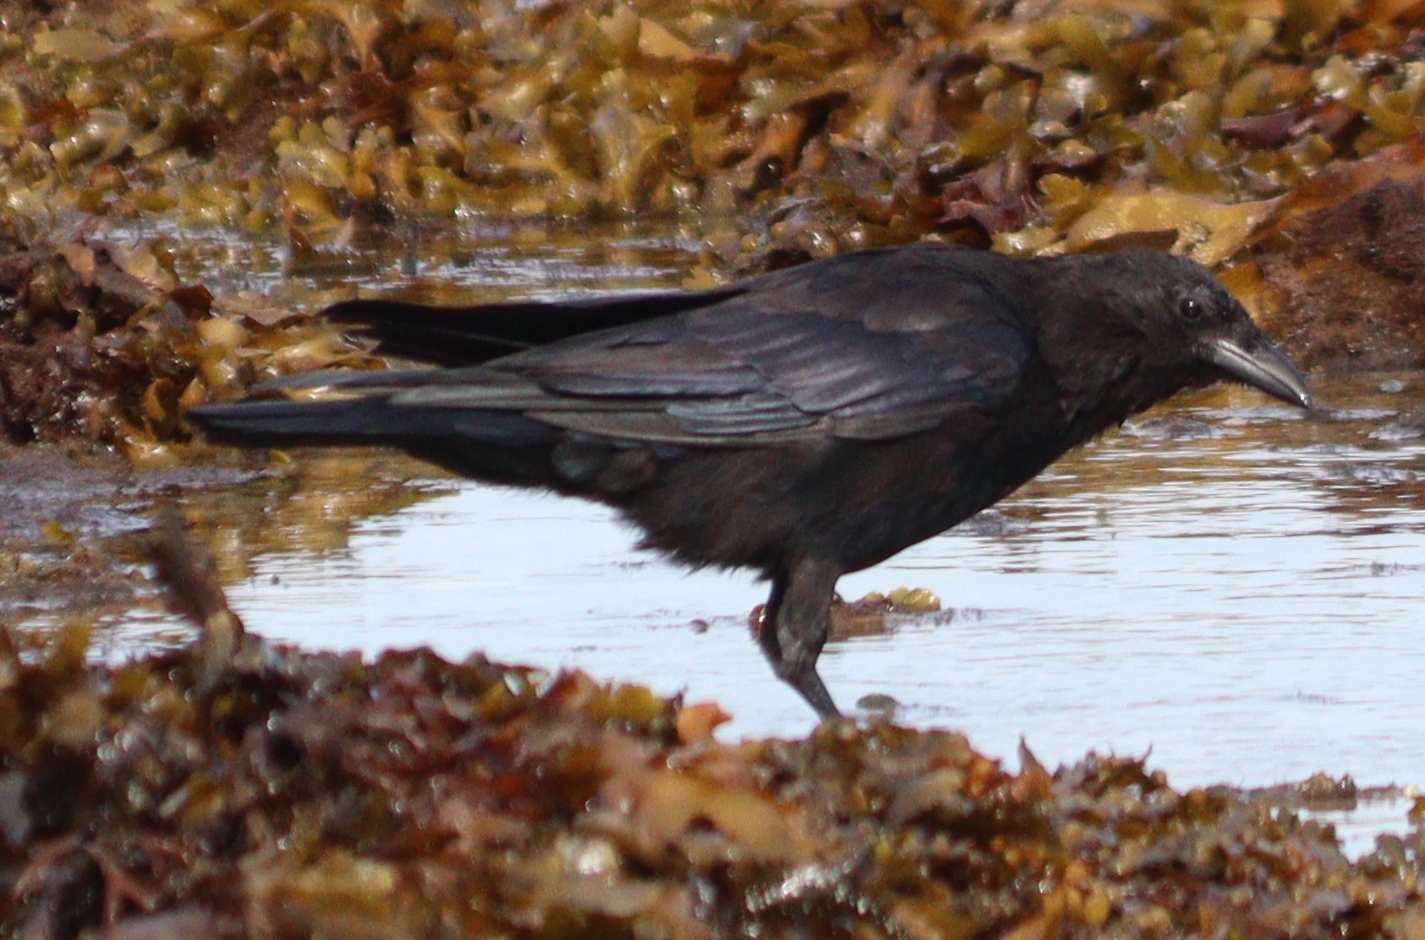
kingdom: Animalia
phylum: Chordata
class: Aves
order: Passeriformes
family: Corvidae
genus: Corvus
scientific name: Corvus corone
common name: Carrion crow
